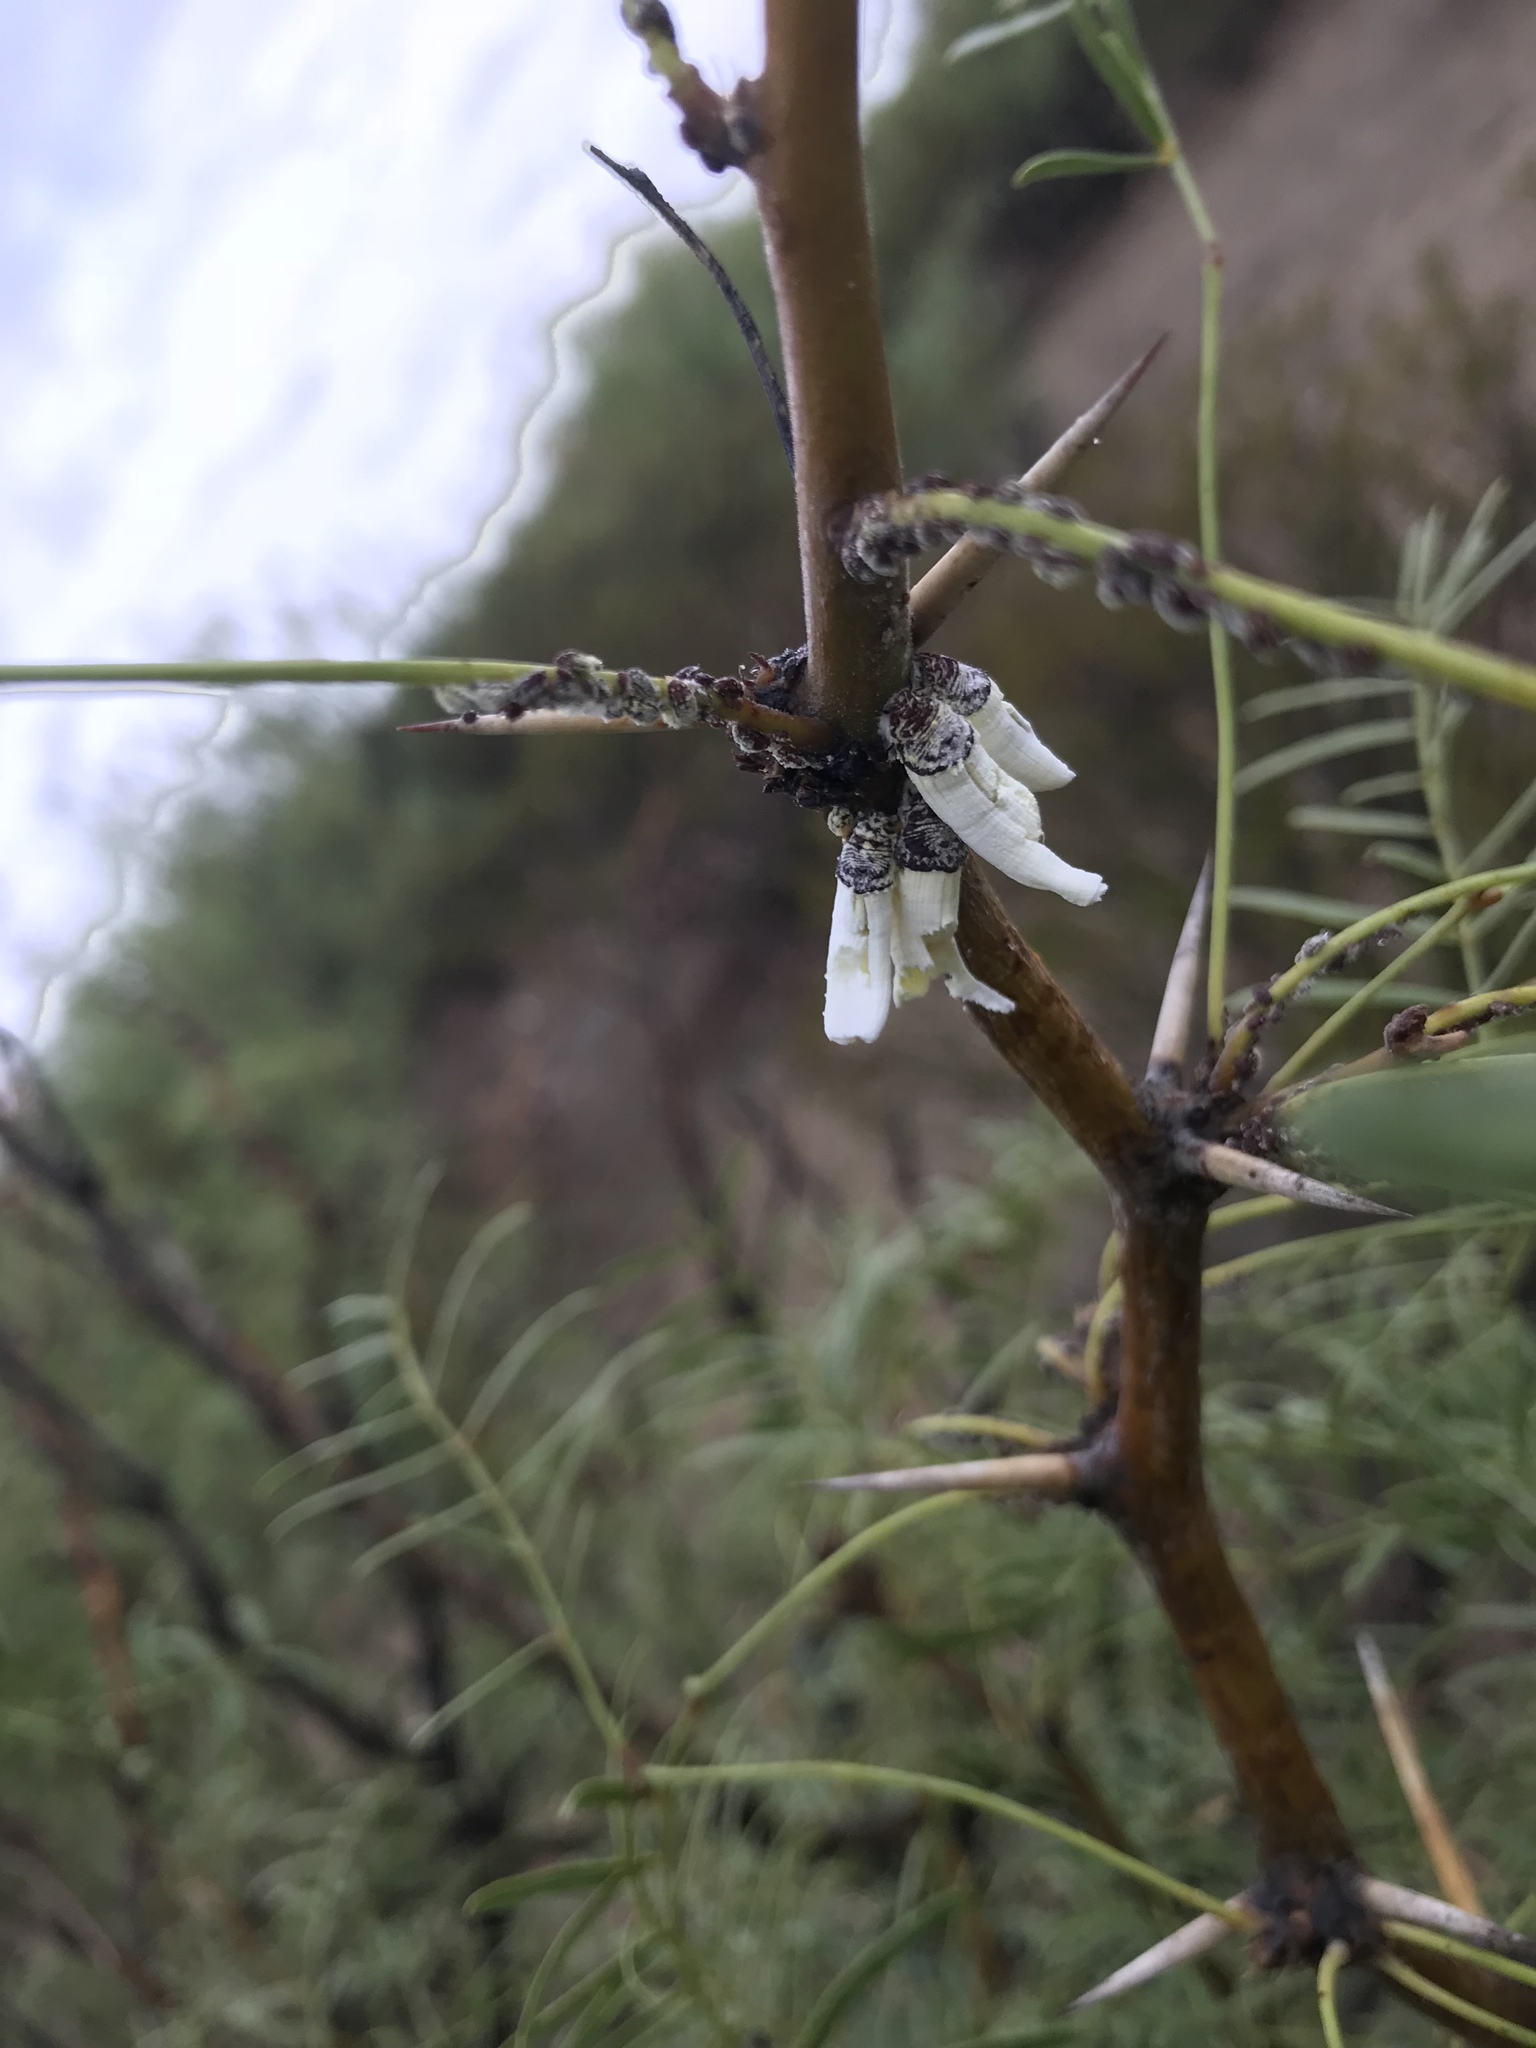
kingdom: Animalia
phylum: Arthropoda
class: Insecta
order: Hemiptera
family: Margarodidae
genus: Crypticerya
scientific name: Crypticerya rileyi
